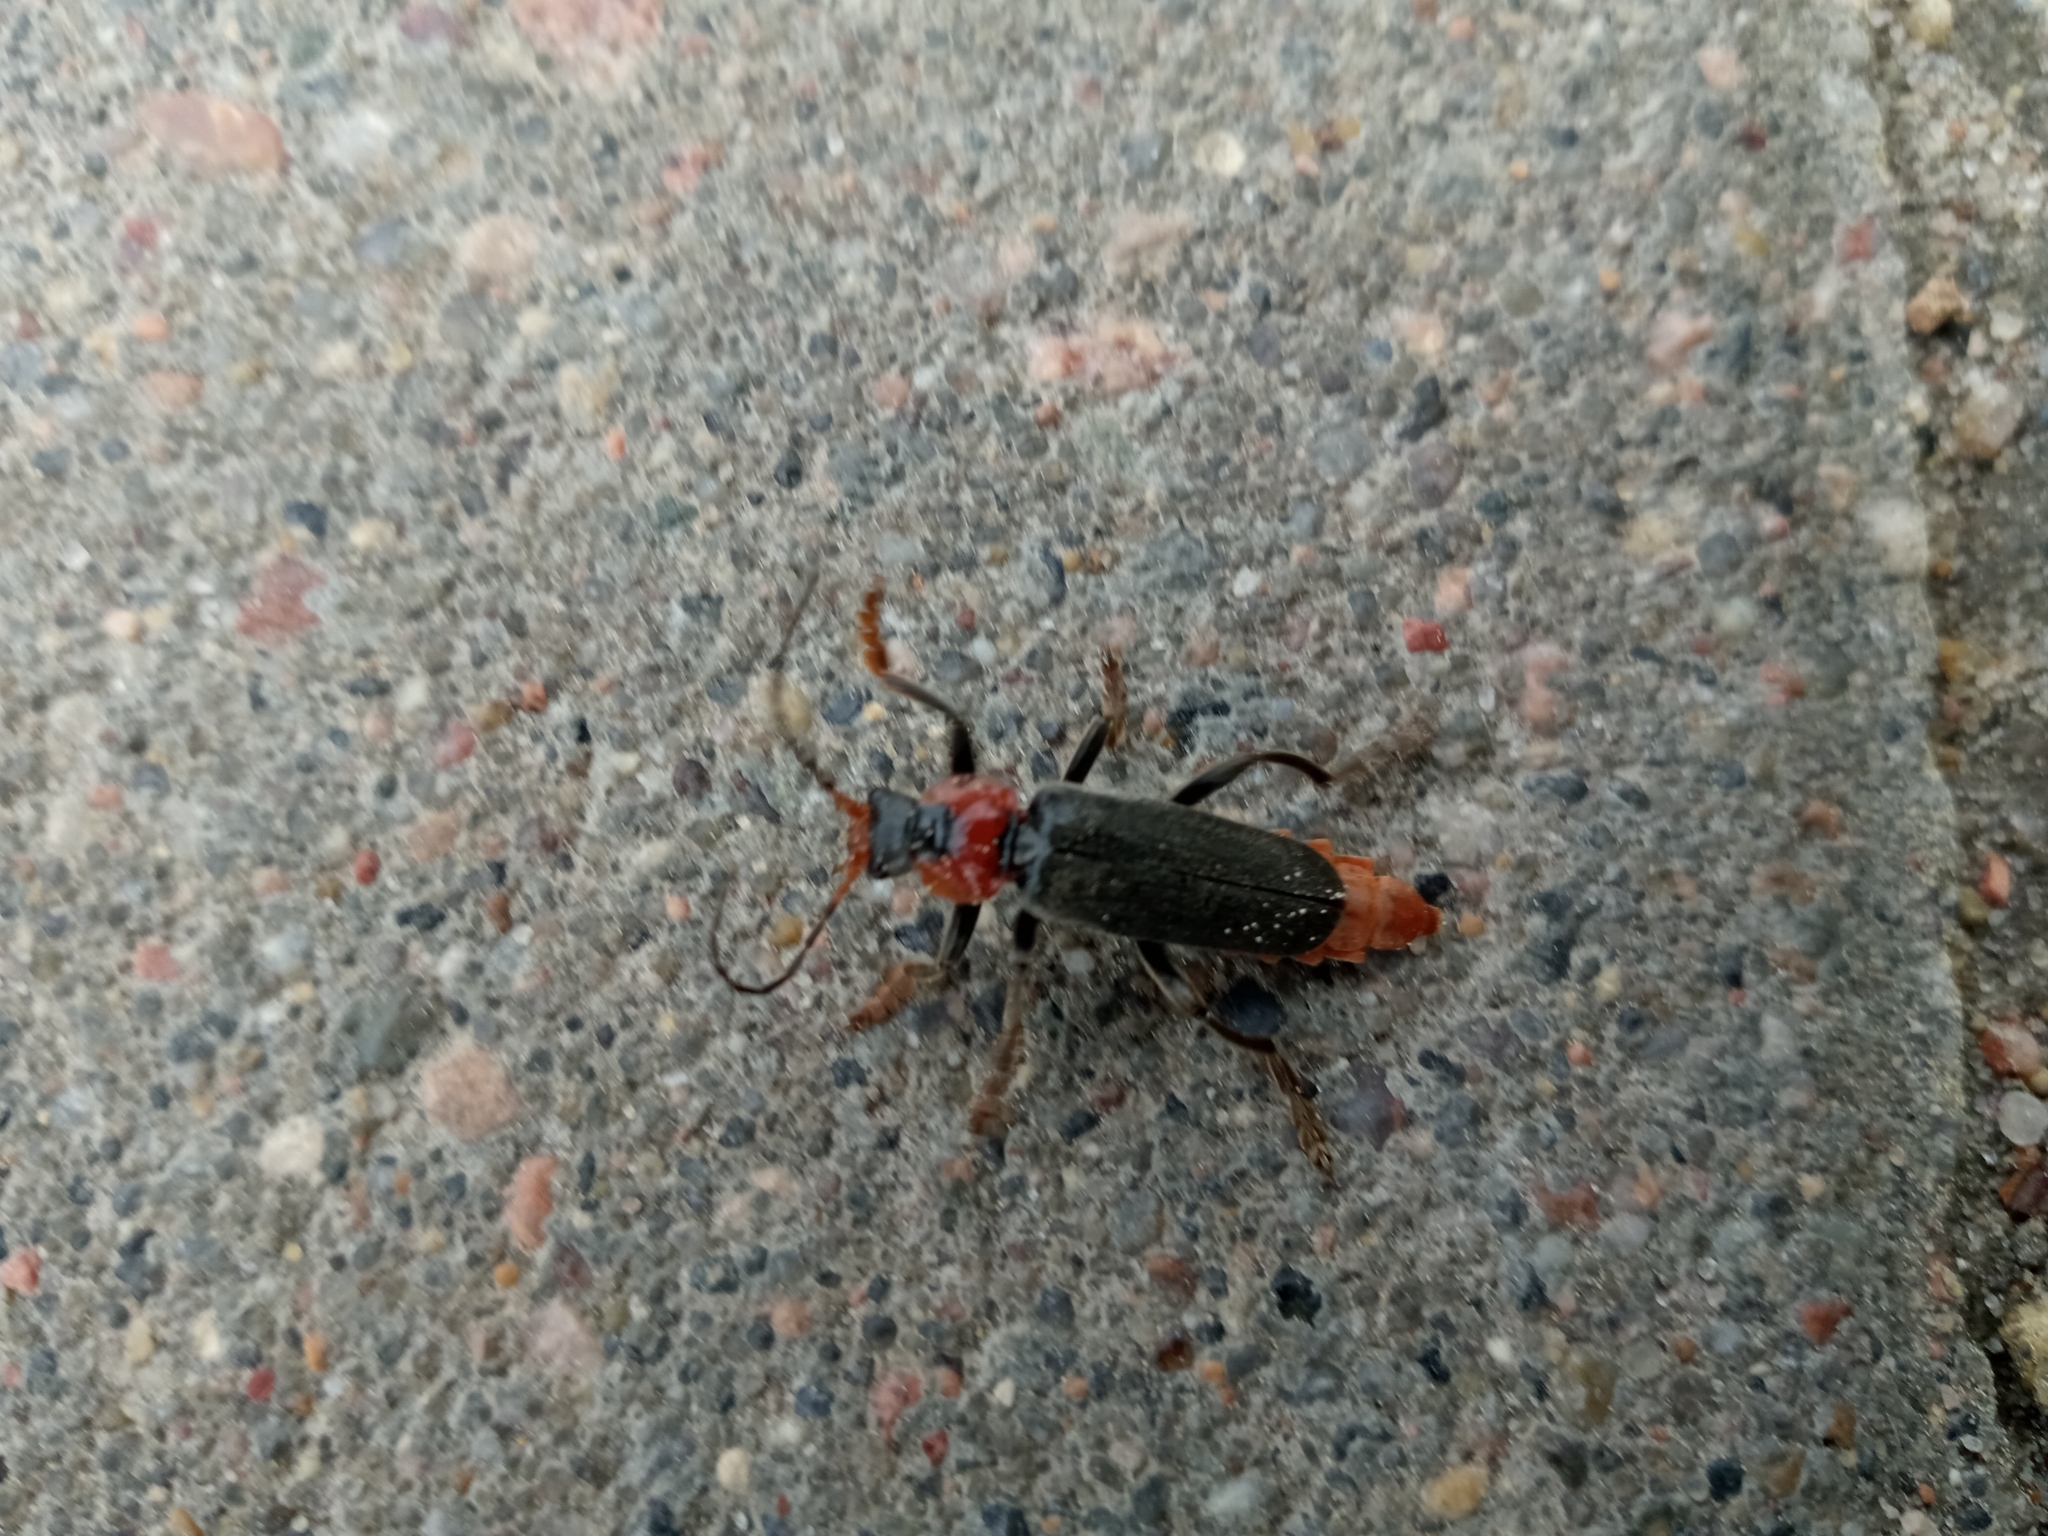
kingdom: Animalia
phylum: Arthropoda
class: Insecta
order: Coleoptera
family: Cantharidae
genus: Cantharis
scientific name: Cantharis fusca
